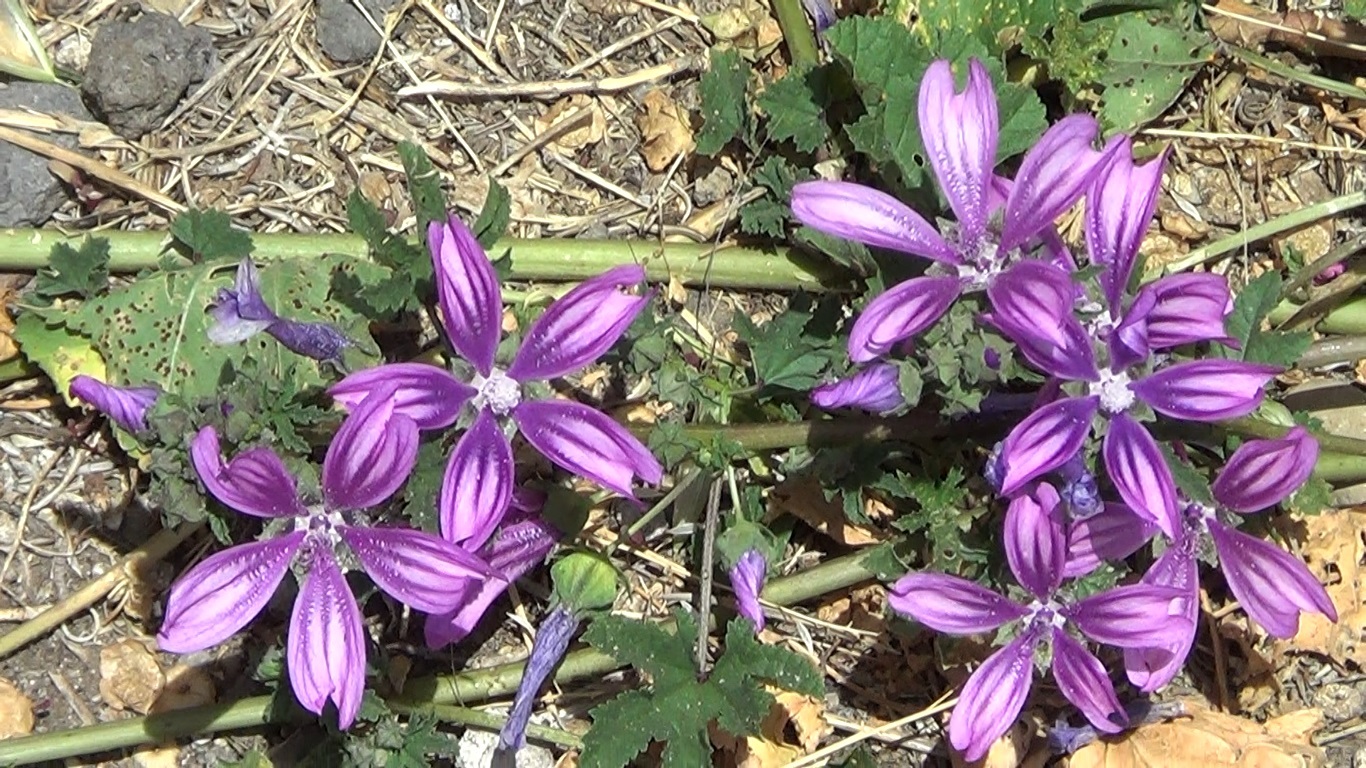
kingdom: Plantae
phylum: Tracheophyta
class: Magnoliopsida
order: Malvales
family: Malvaceae
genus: Malva
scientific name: Malva sylvestris
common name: Common mallow
